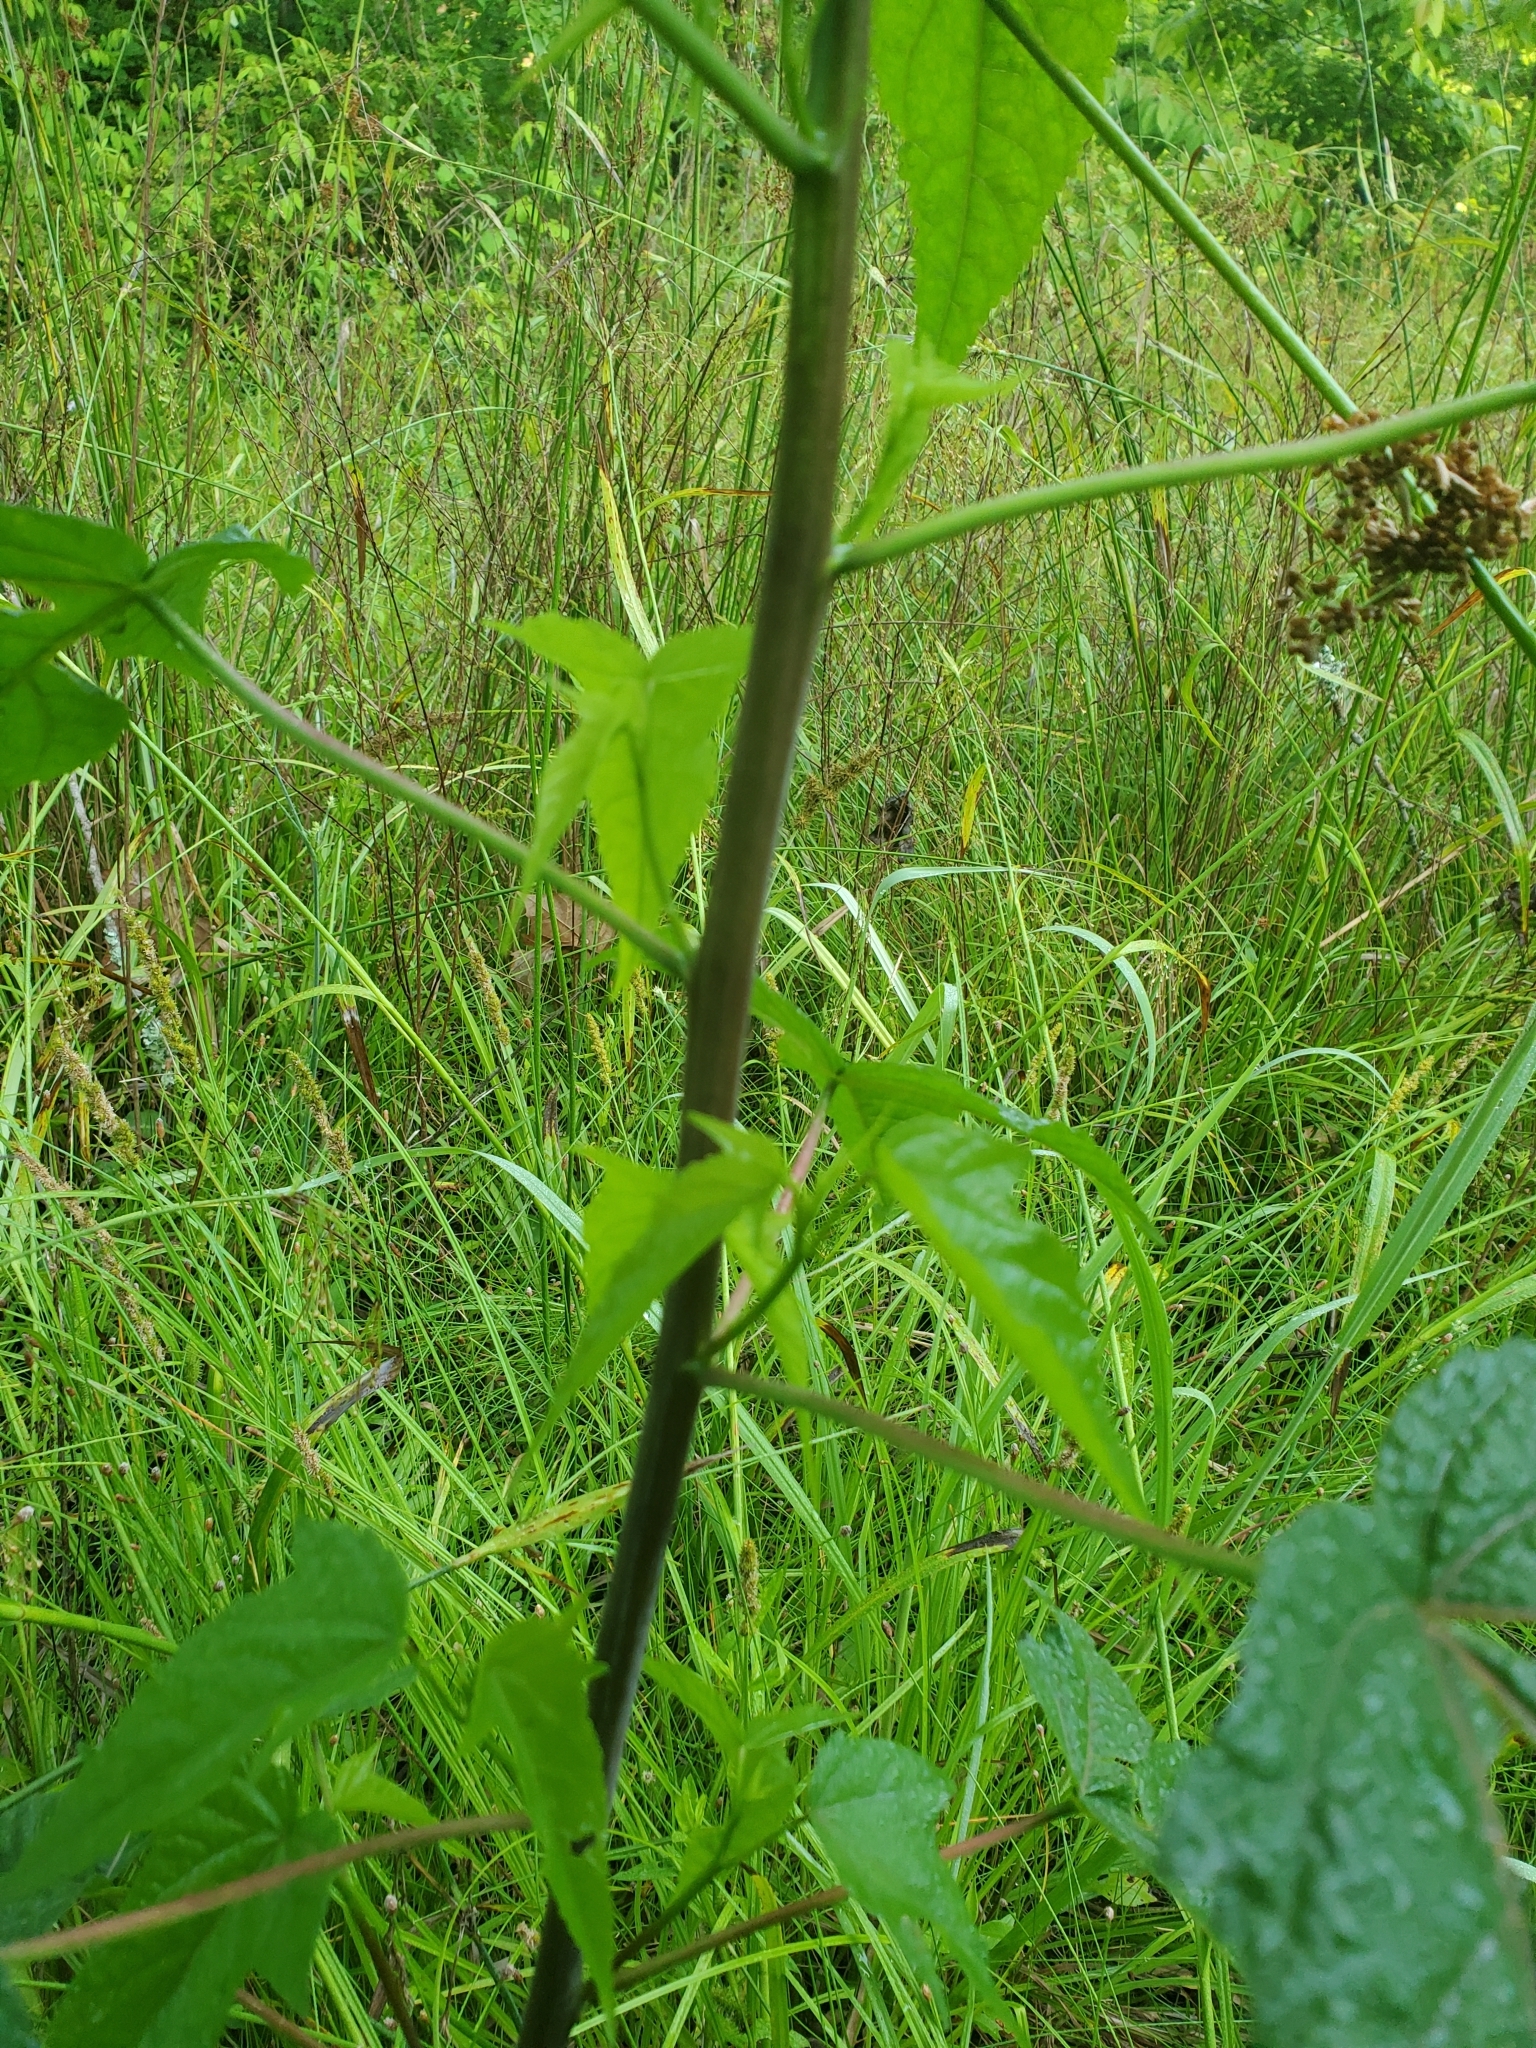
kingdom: Plantae
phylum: Tracheophyta
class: Magnoliopsida
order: Malvales
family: Malvaceae
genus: Hibiscus
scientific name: Hibiscus laevis
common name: Scarlet rose-mallow
